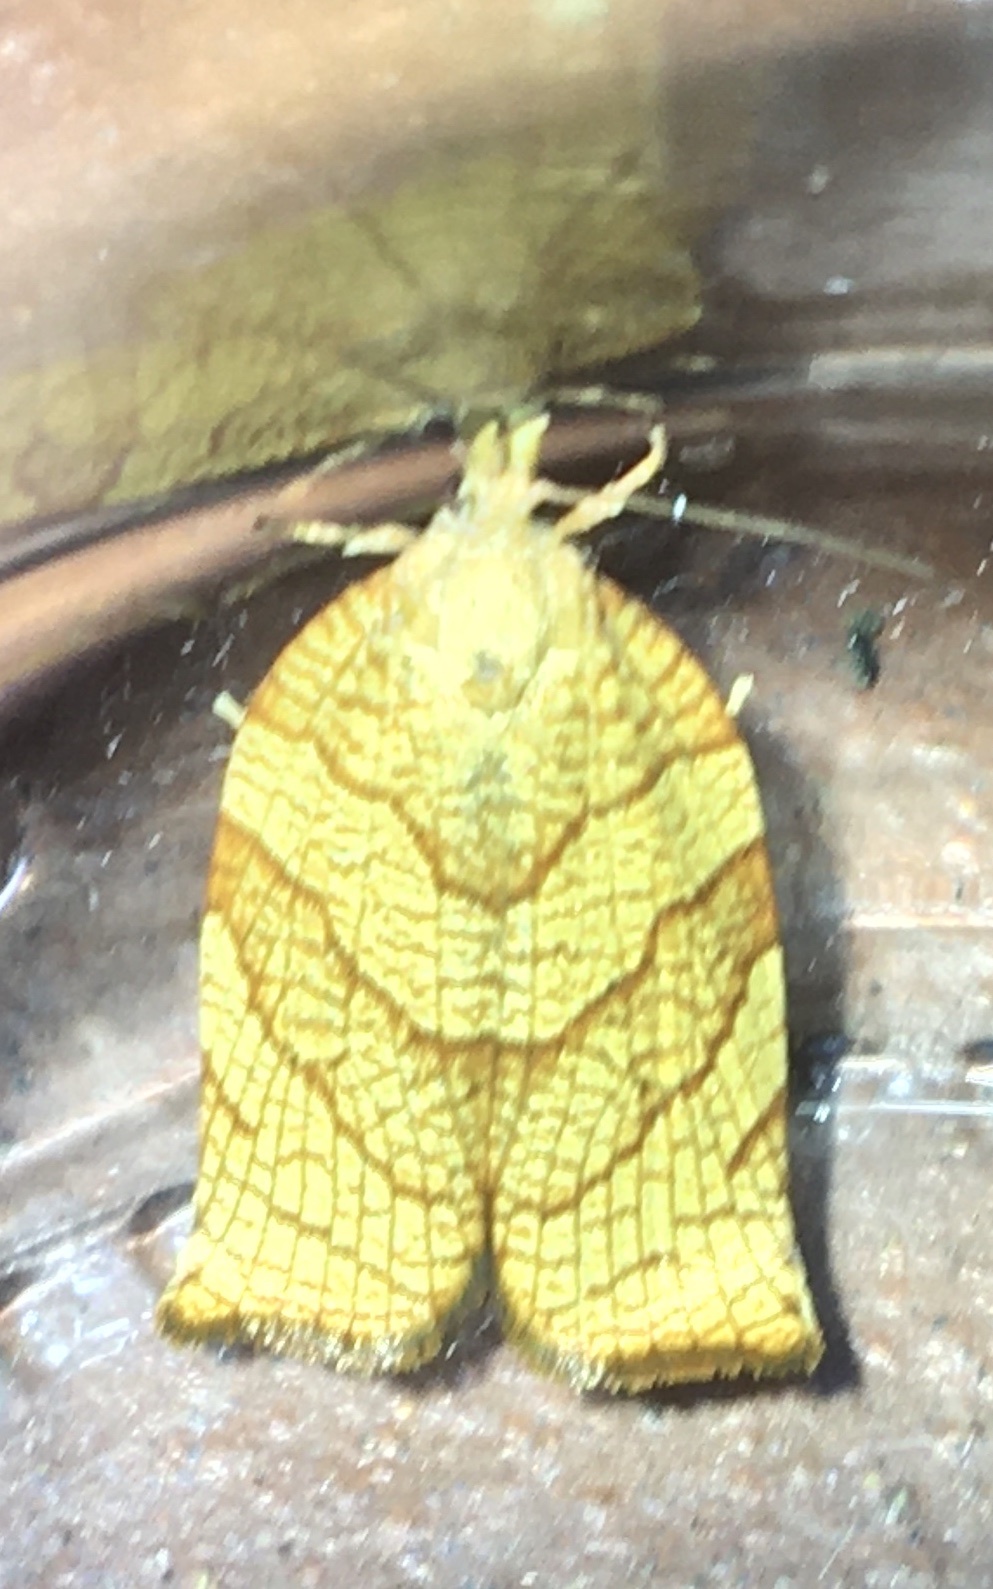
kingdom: Animalia
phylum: Arthropoda
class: Insecta
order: Lepidoptera
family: Tortricidae
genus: Pandemis
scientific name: Pandemis corylana
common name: Chequered fruit-tree tortrix
